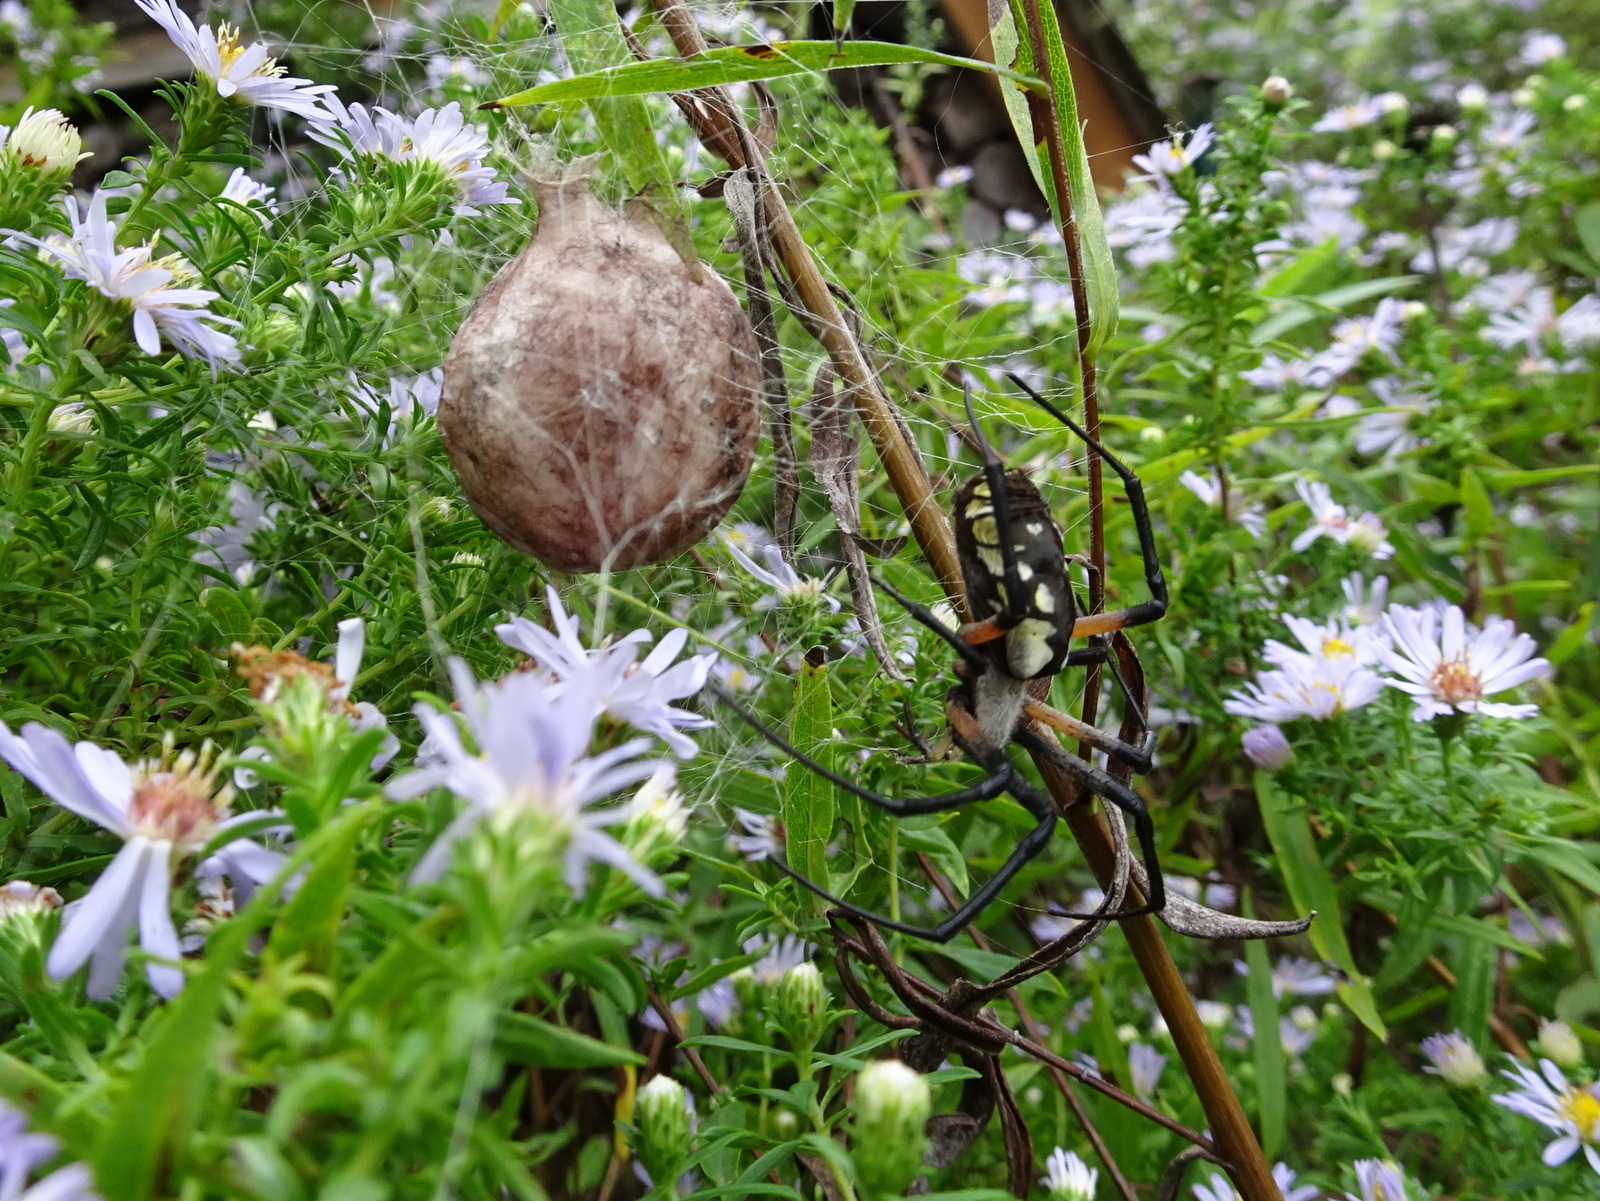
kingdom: Animalia
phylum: Arthropoda
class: Arachnida
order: Araneae
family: Araneidae
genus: Argiope
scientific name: Argiope aurantia
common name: Orb weavers
